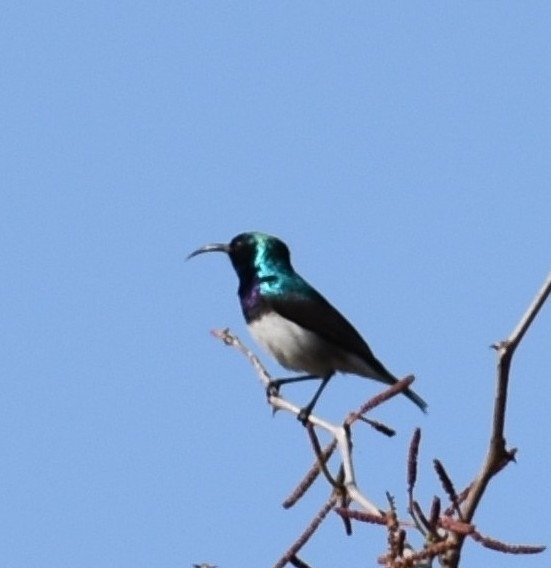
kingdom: Animalia
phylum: Chordata
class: Aves
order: Passeriformes
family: Nectariniidae
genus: Cinnyris
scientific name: Cinnyris talatala
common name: White-bellied sunbird
